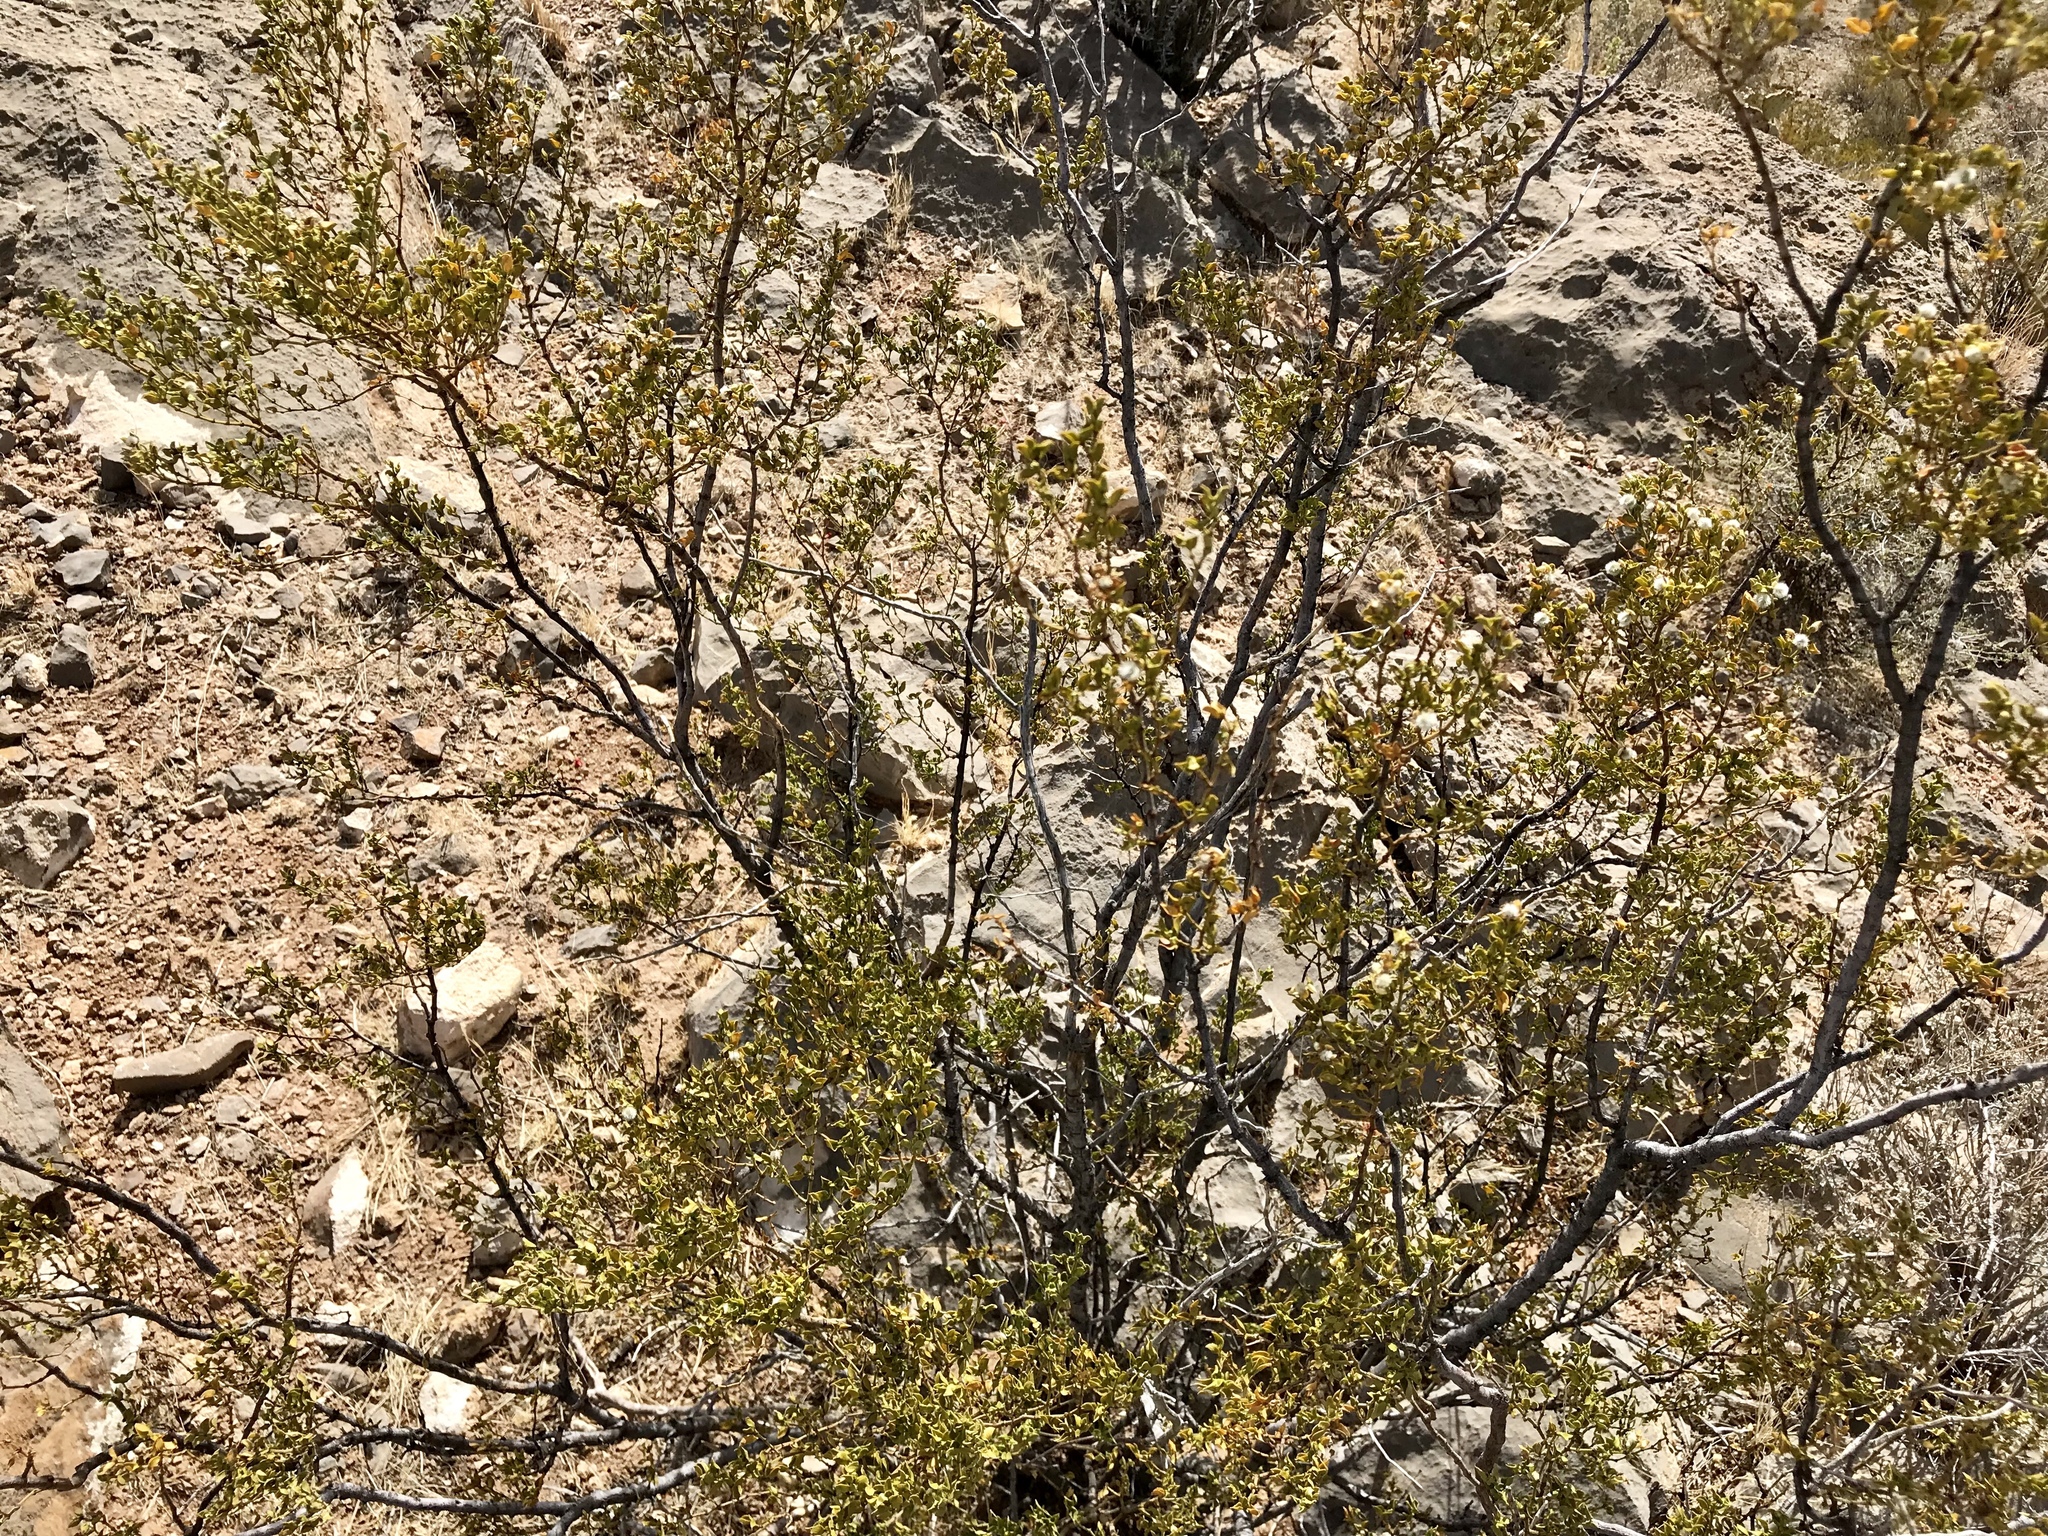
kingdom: Plantae
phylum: Tracheophyta
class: Magnoliopsida
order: Zygophyllales
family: Zygophyllaceae
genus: Larrea
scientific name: Larrea tridentata
